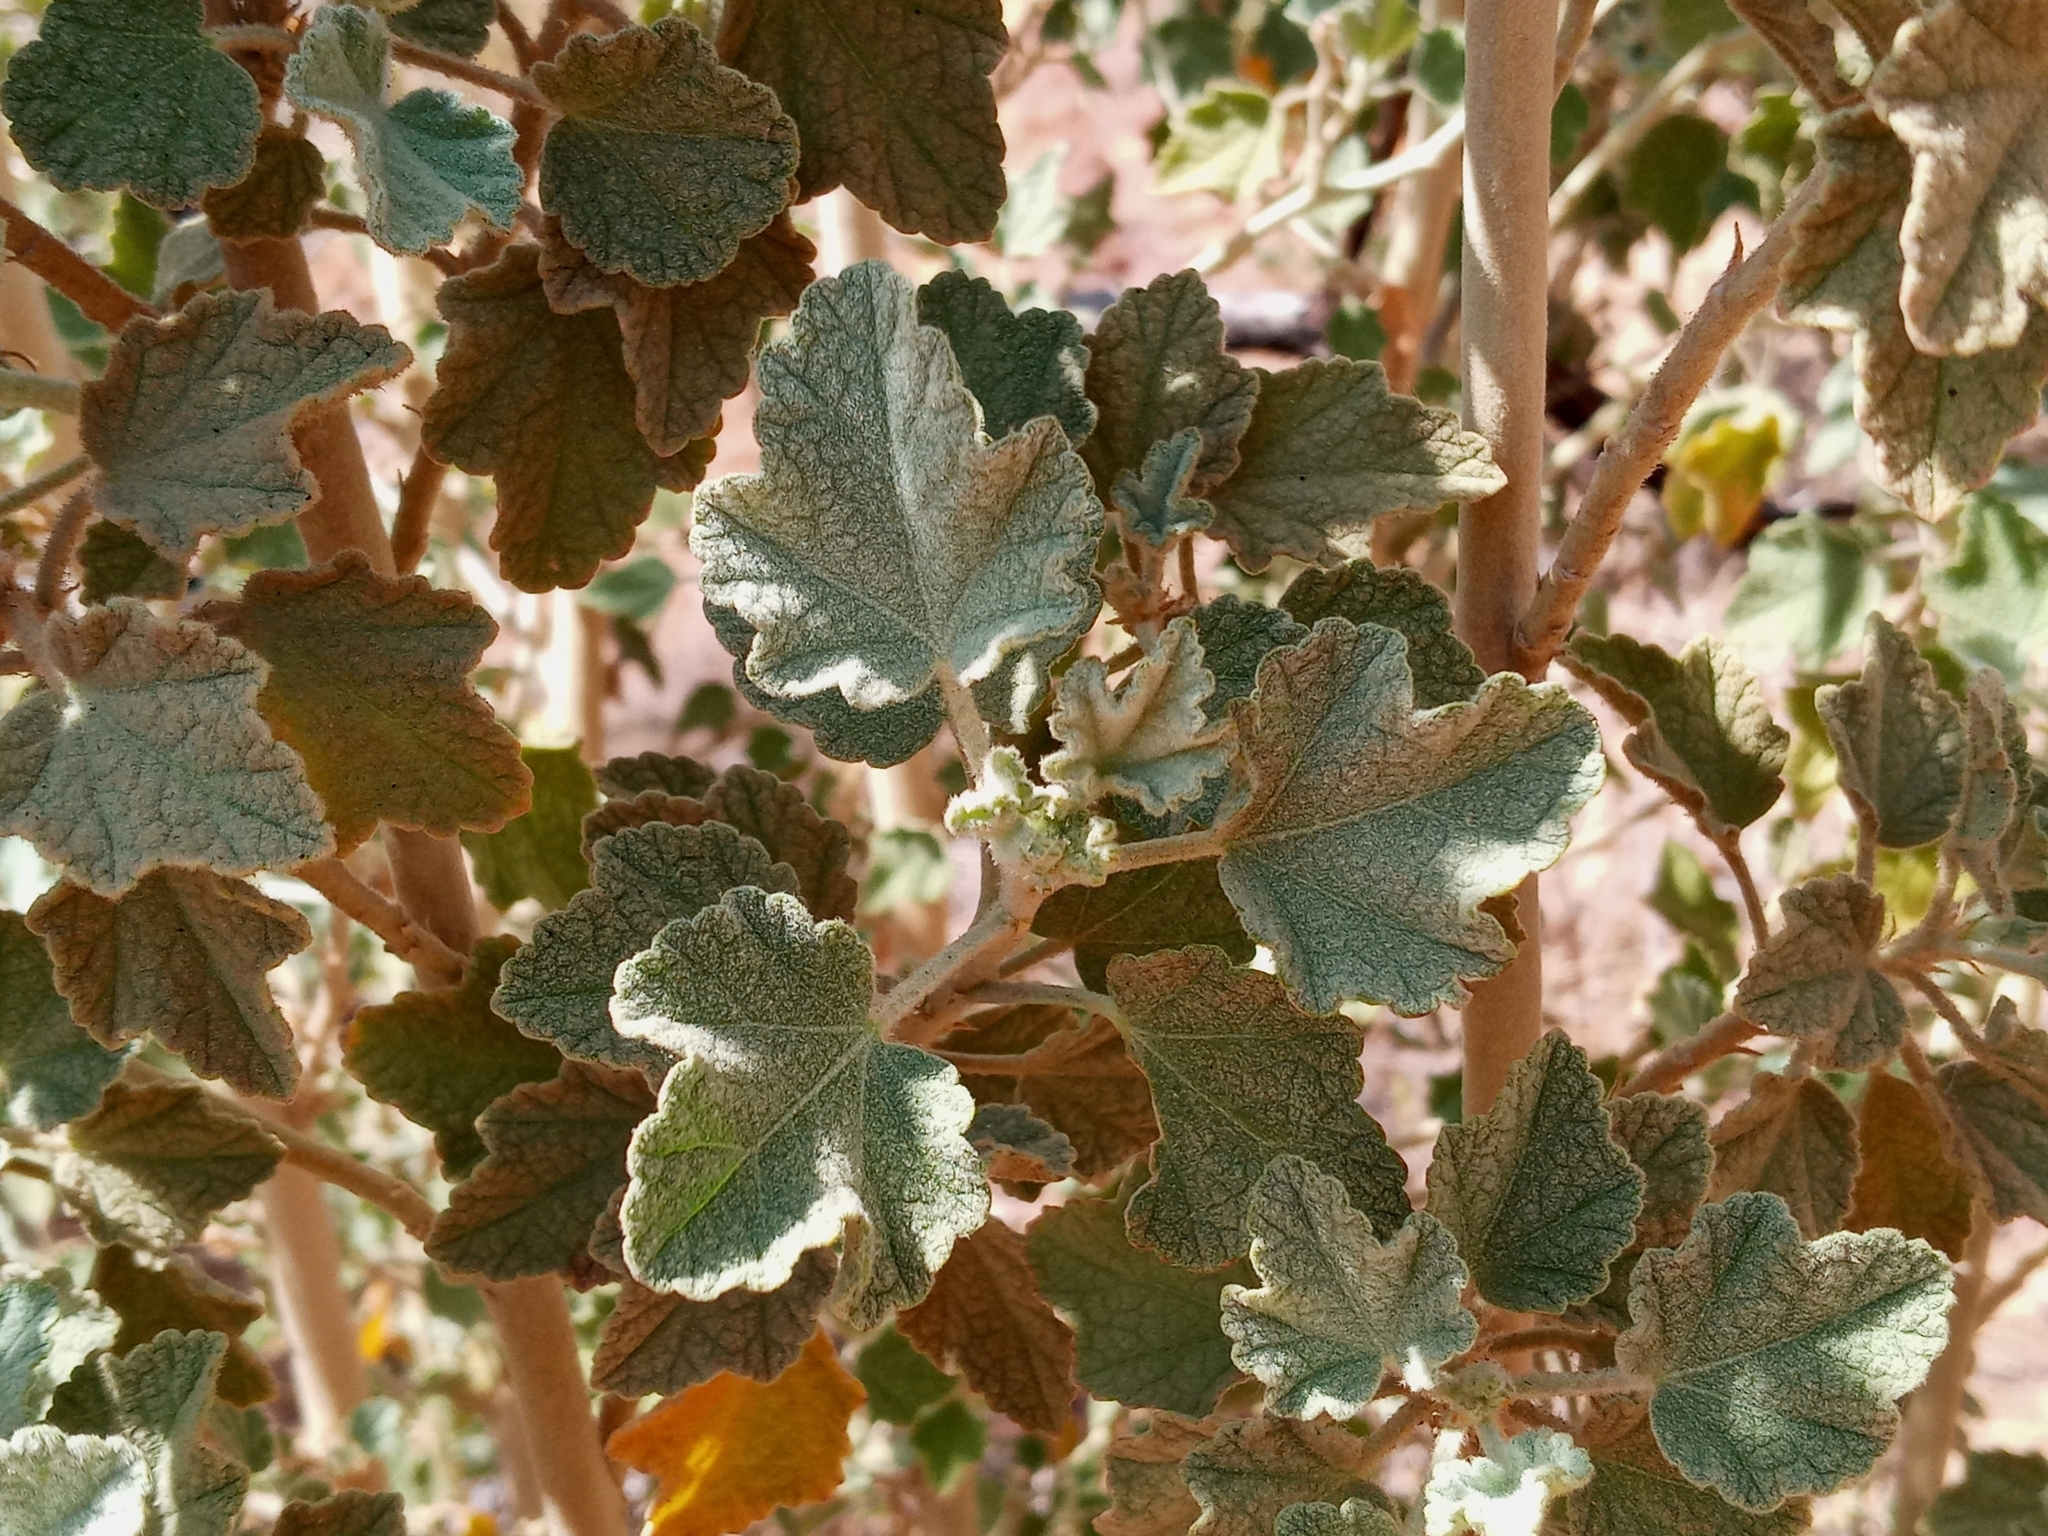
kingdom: Plantae
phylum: Tracheophyta
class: Magnoliopsida
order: Malvales
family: Malvaceae
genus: Malacothamnus
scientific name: Malacothamnus marrubioides
